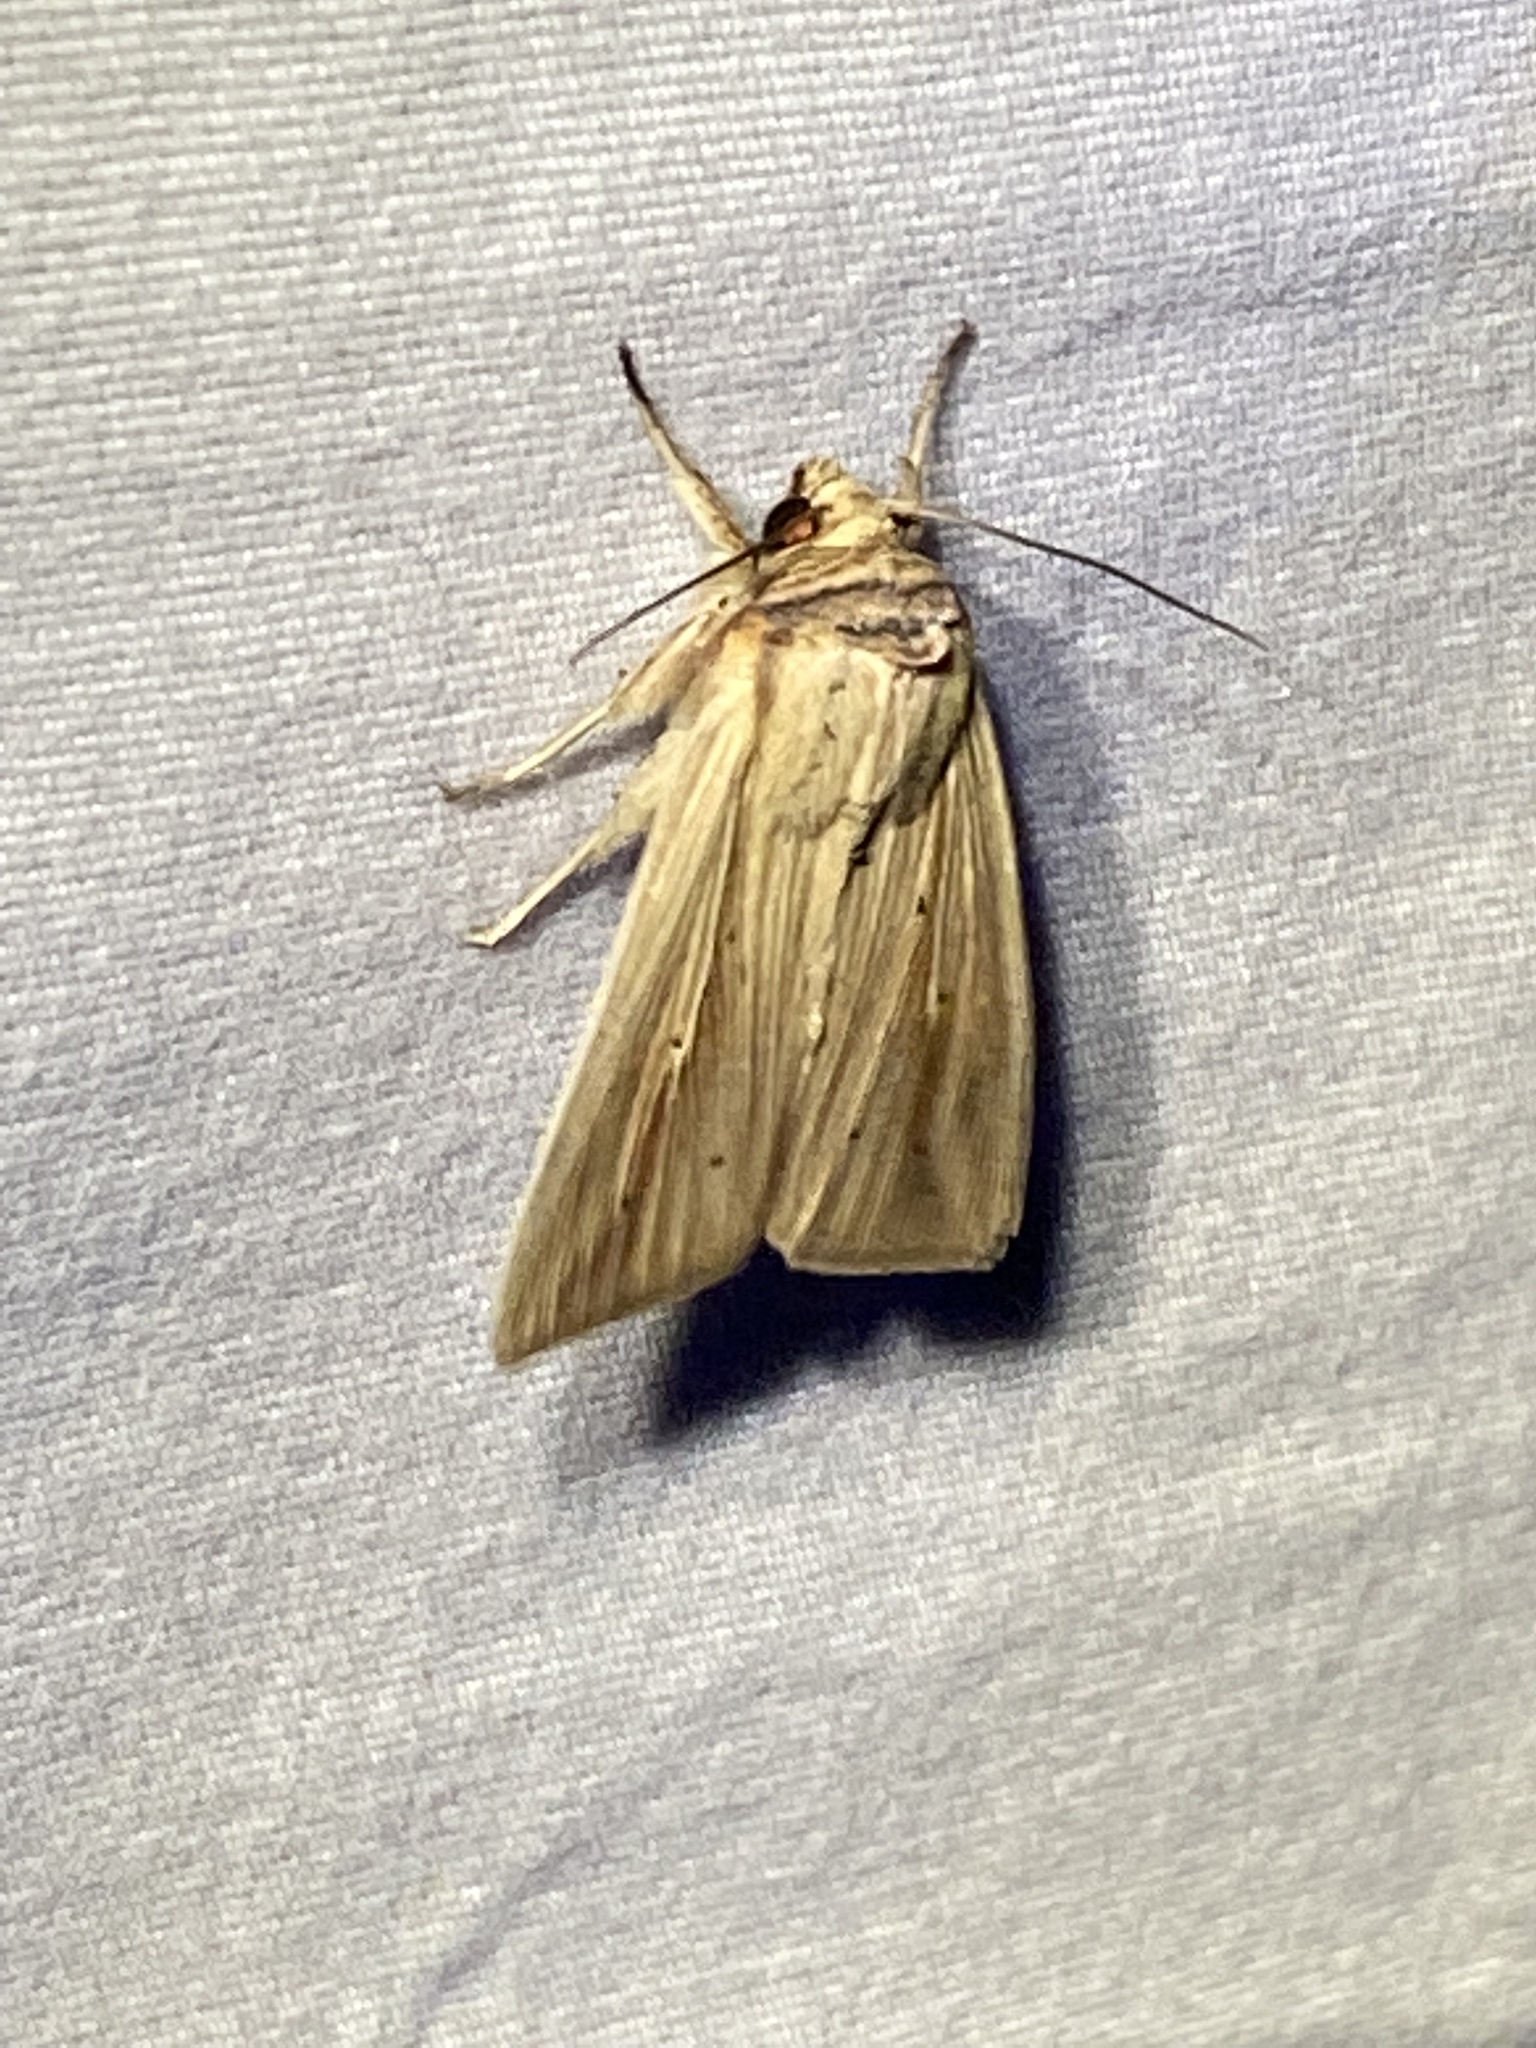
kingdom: Animalia
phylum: Arthropoda
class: Insecta
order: Lepidoptera
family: Noctuidae
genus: Leucania
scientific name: Leucania adjuta
